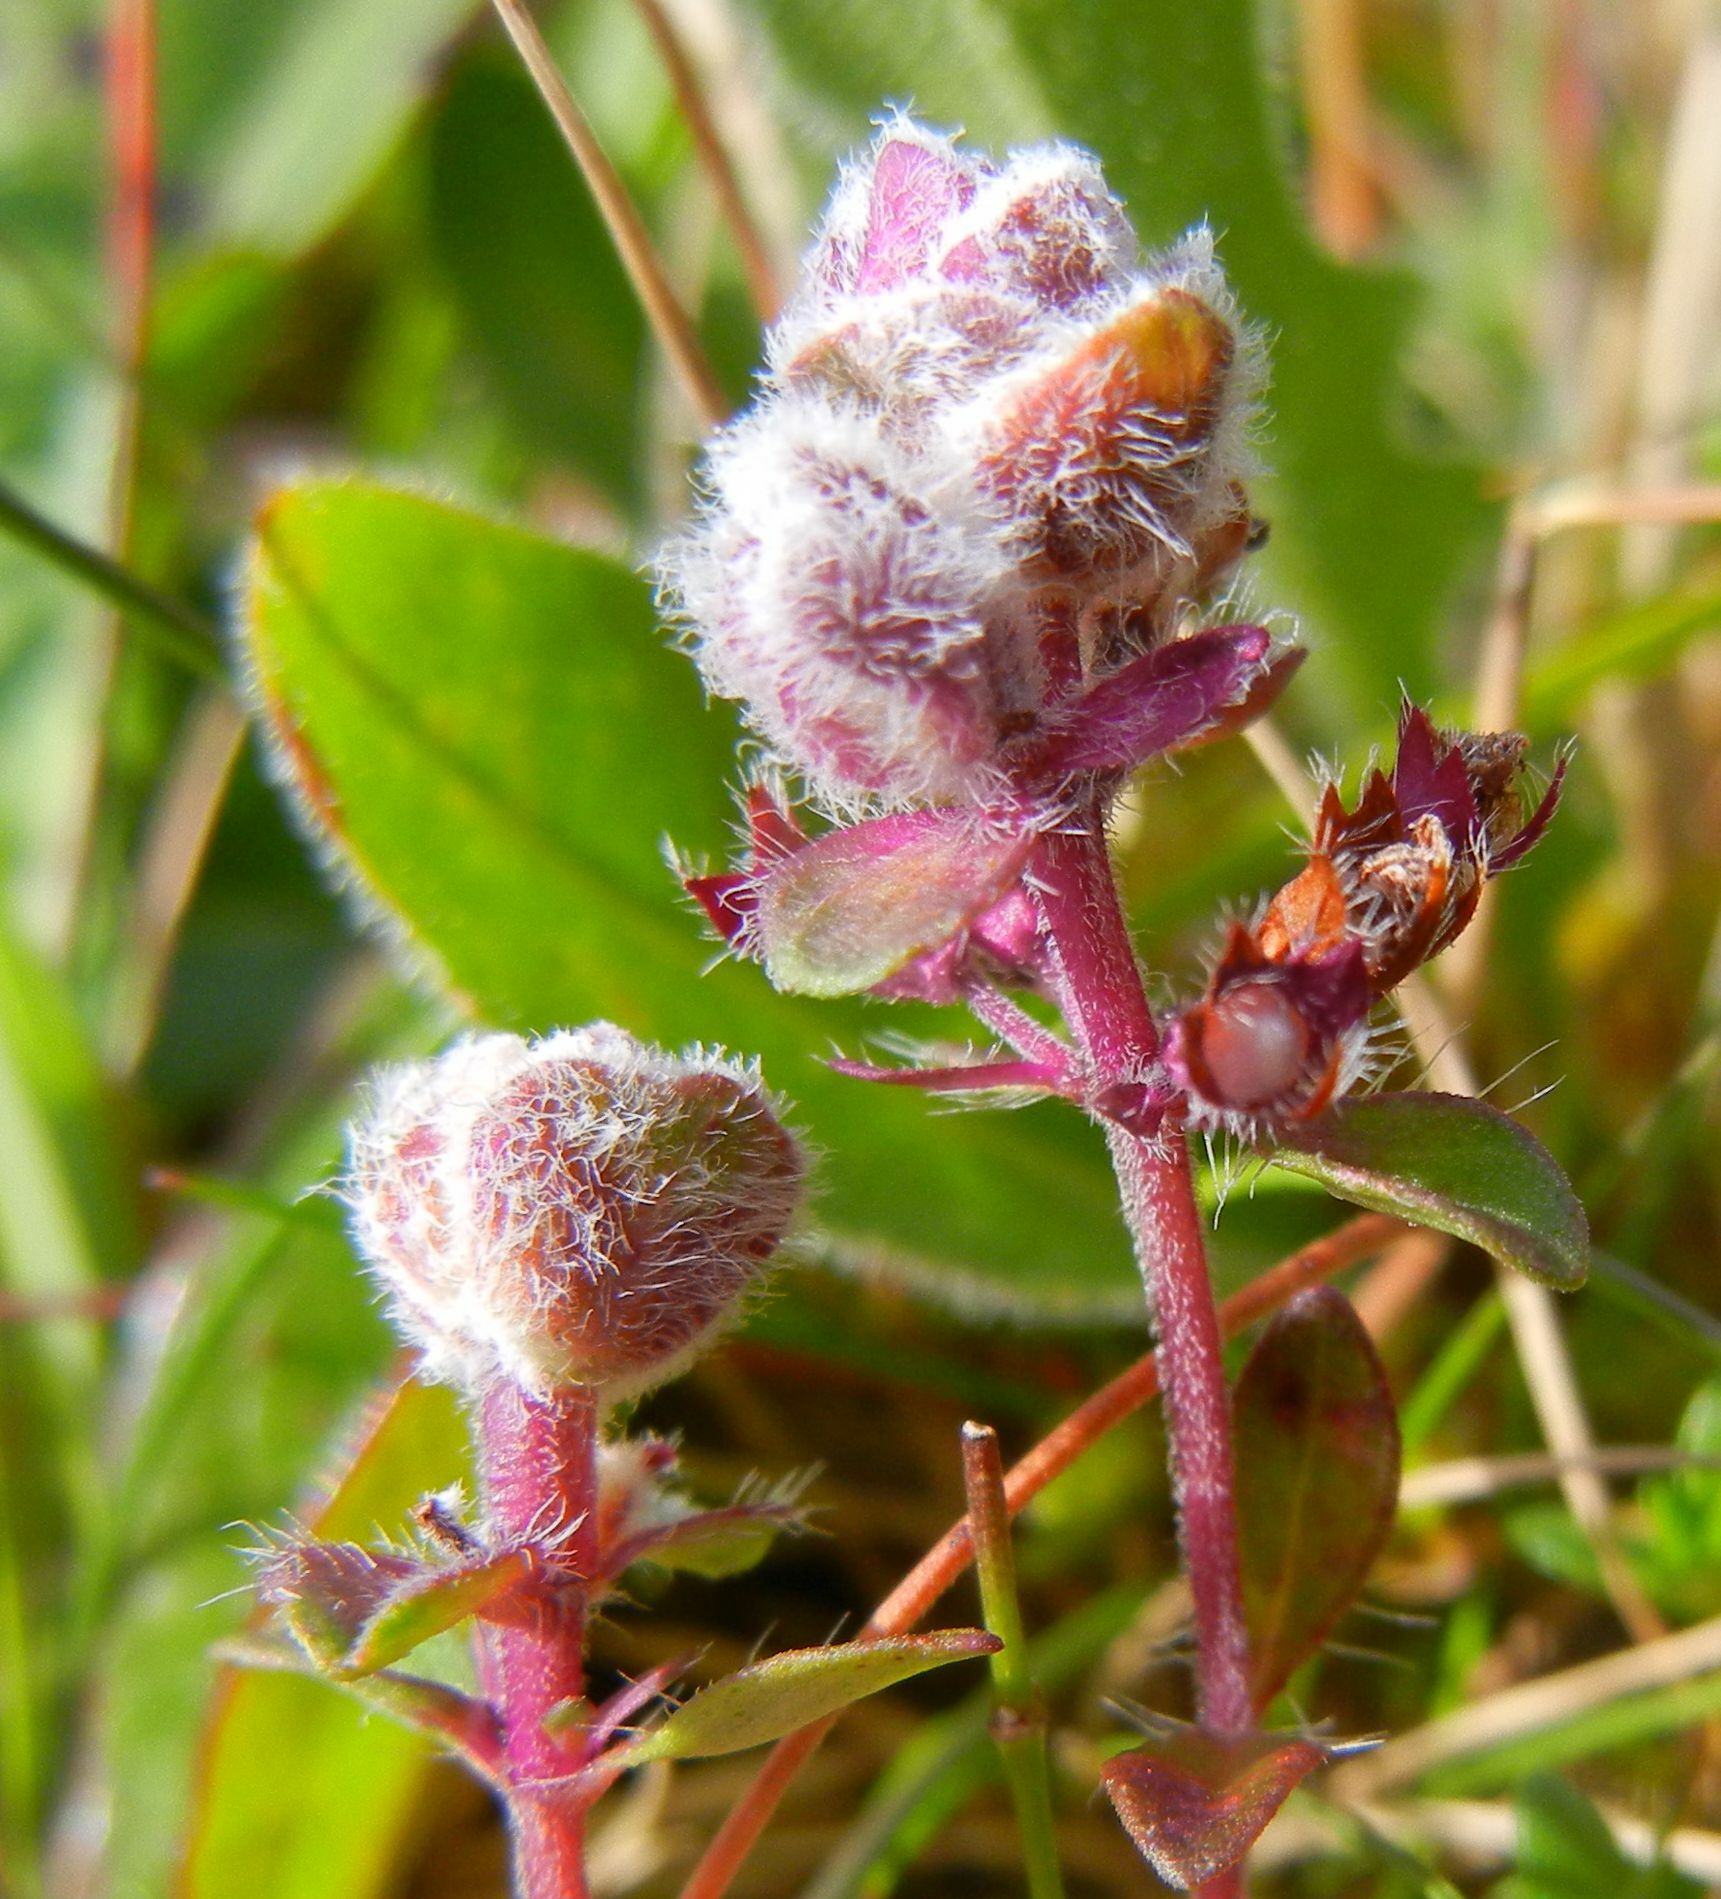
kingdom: Animalia
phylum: Arthropoda
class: Arachnida
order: Trombidiformes
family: Eriophyidae
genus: Aceria
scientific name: Aceria thomasi
